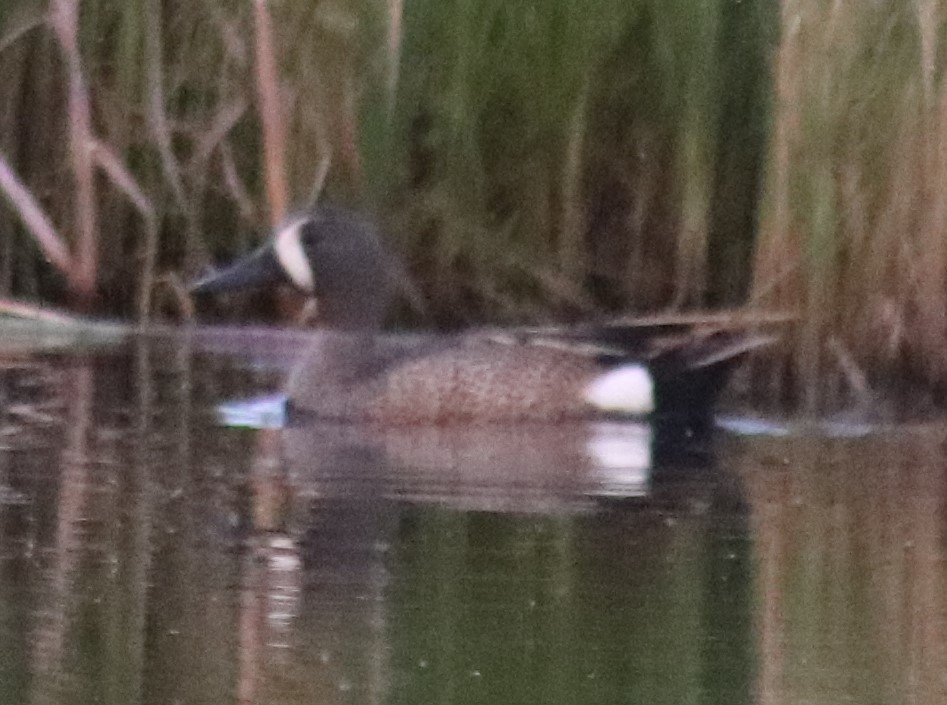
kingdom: Animalia
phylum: Chordata
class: Aves
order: Anseriformes
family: Anatidae
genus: Spatula
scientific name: Spatula discors
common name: Blue-winged teal
